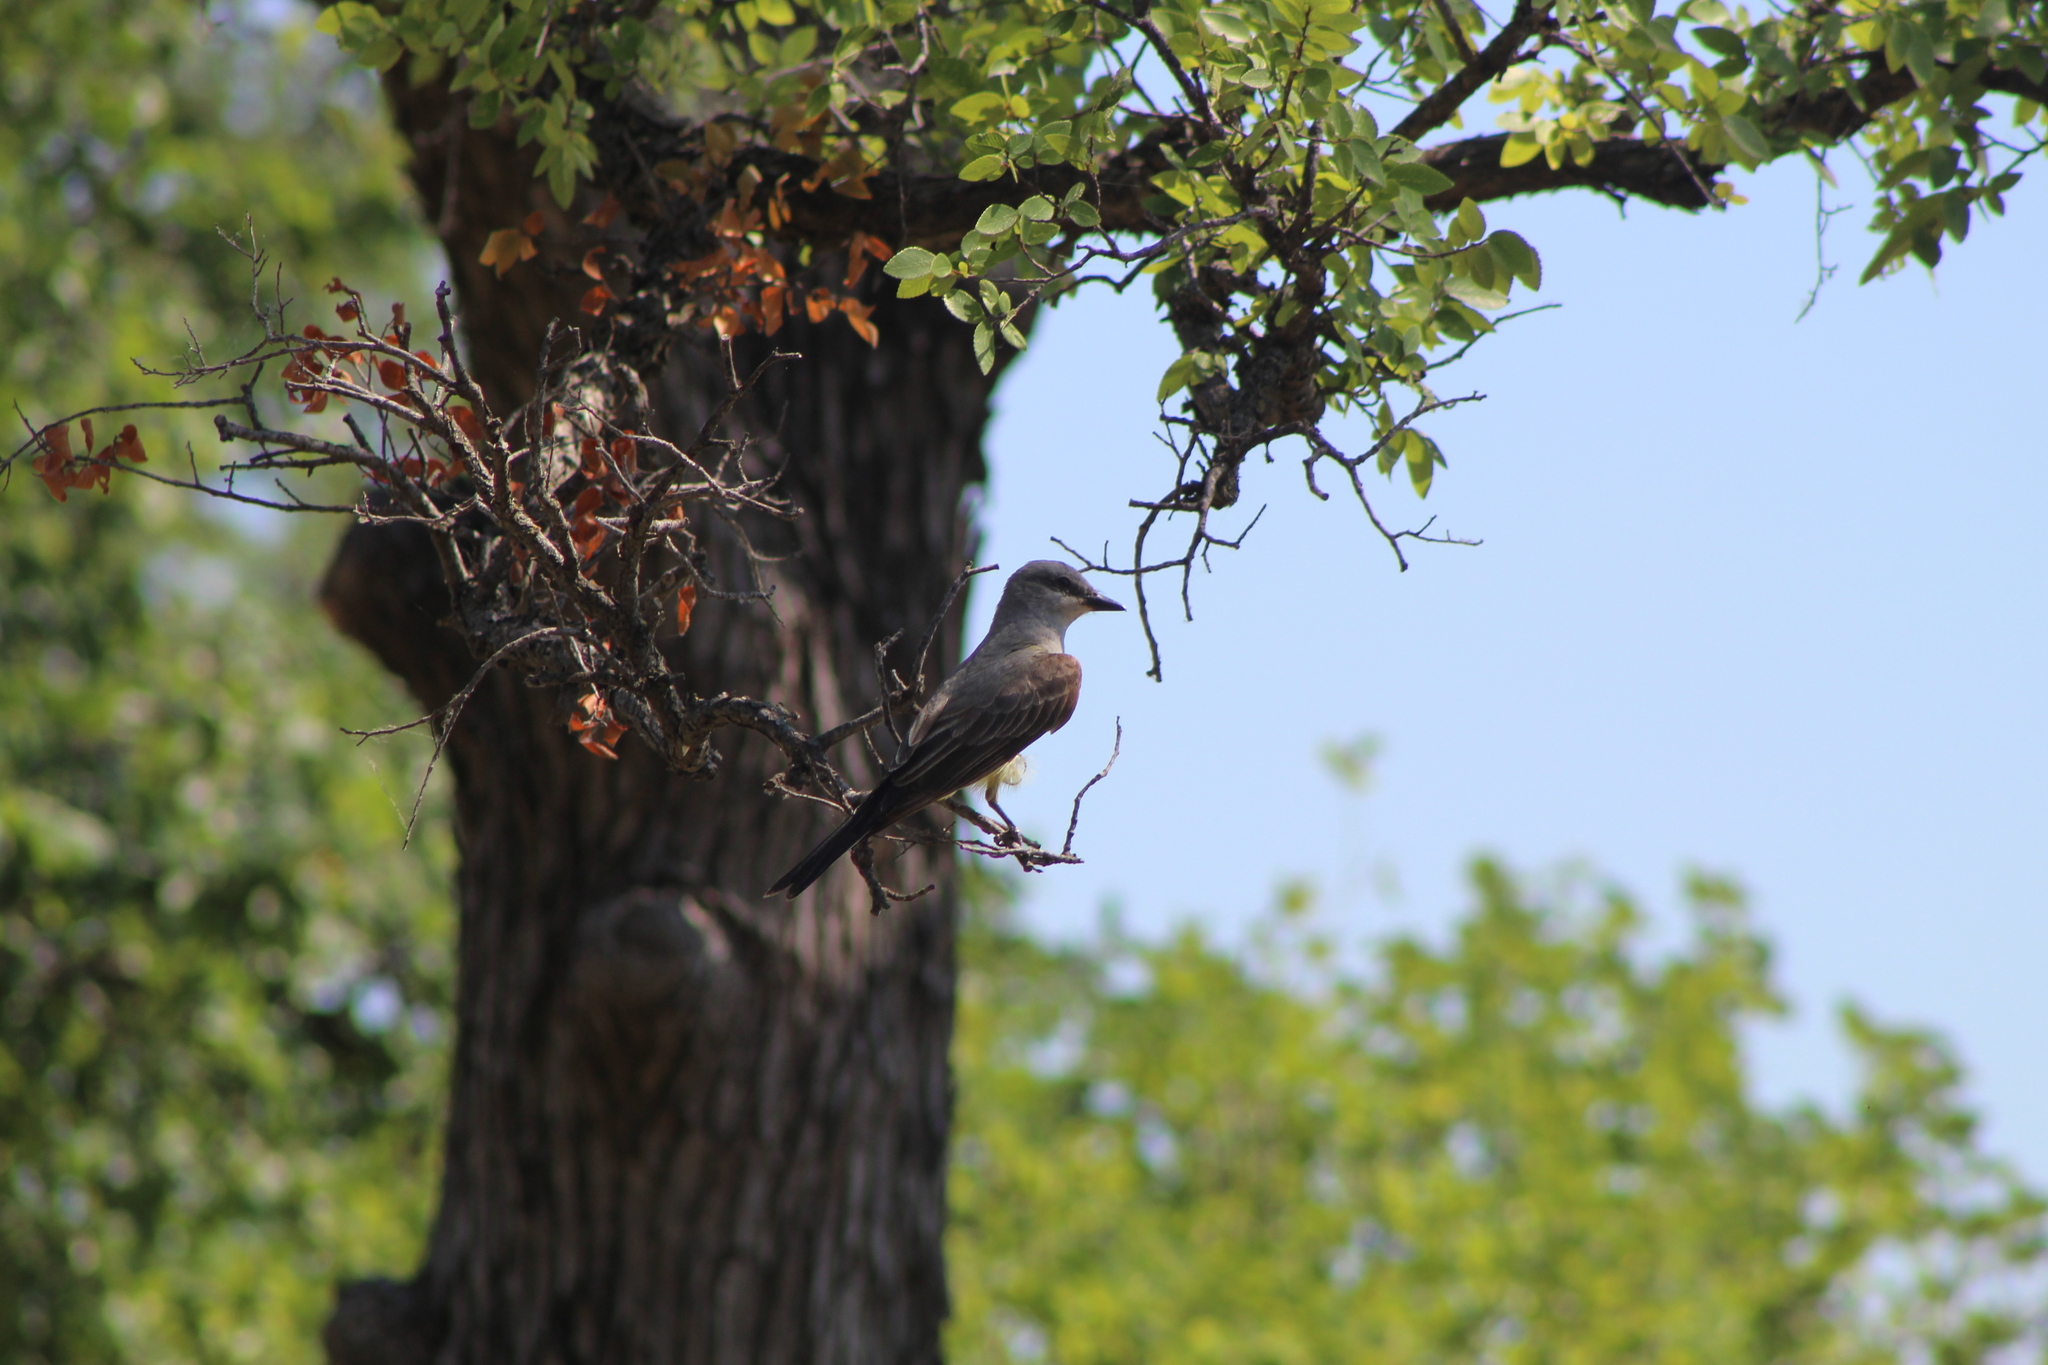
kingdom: Animalia
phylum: Chordata
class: Aves
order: Passeriformes
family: Tyrannidae
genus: Tyrannus
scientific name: Tyrannus verticalis
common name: Western kingbird
